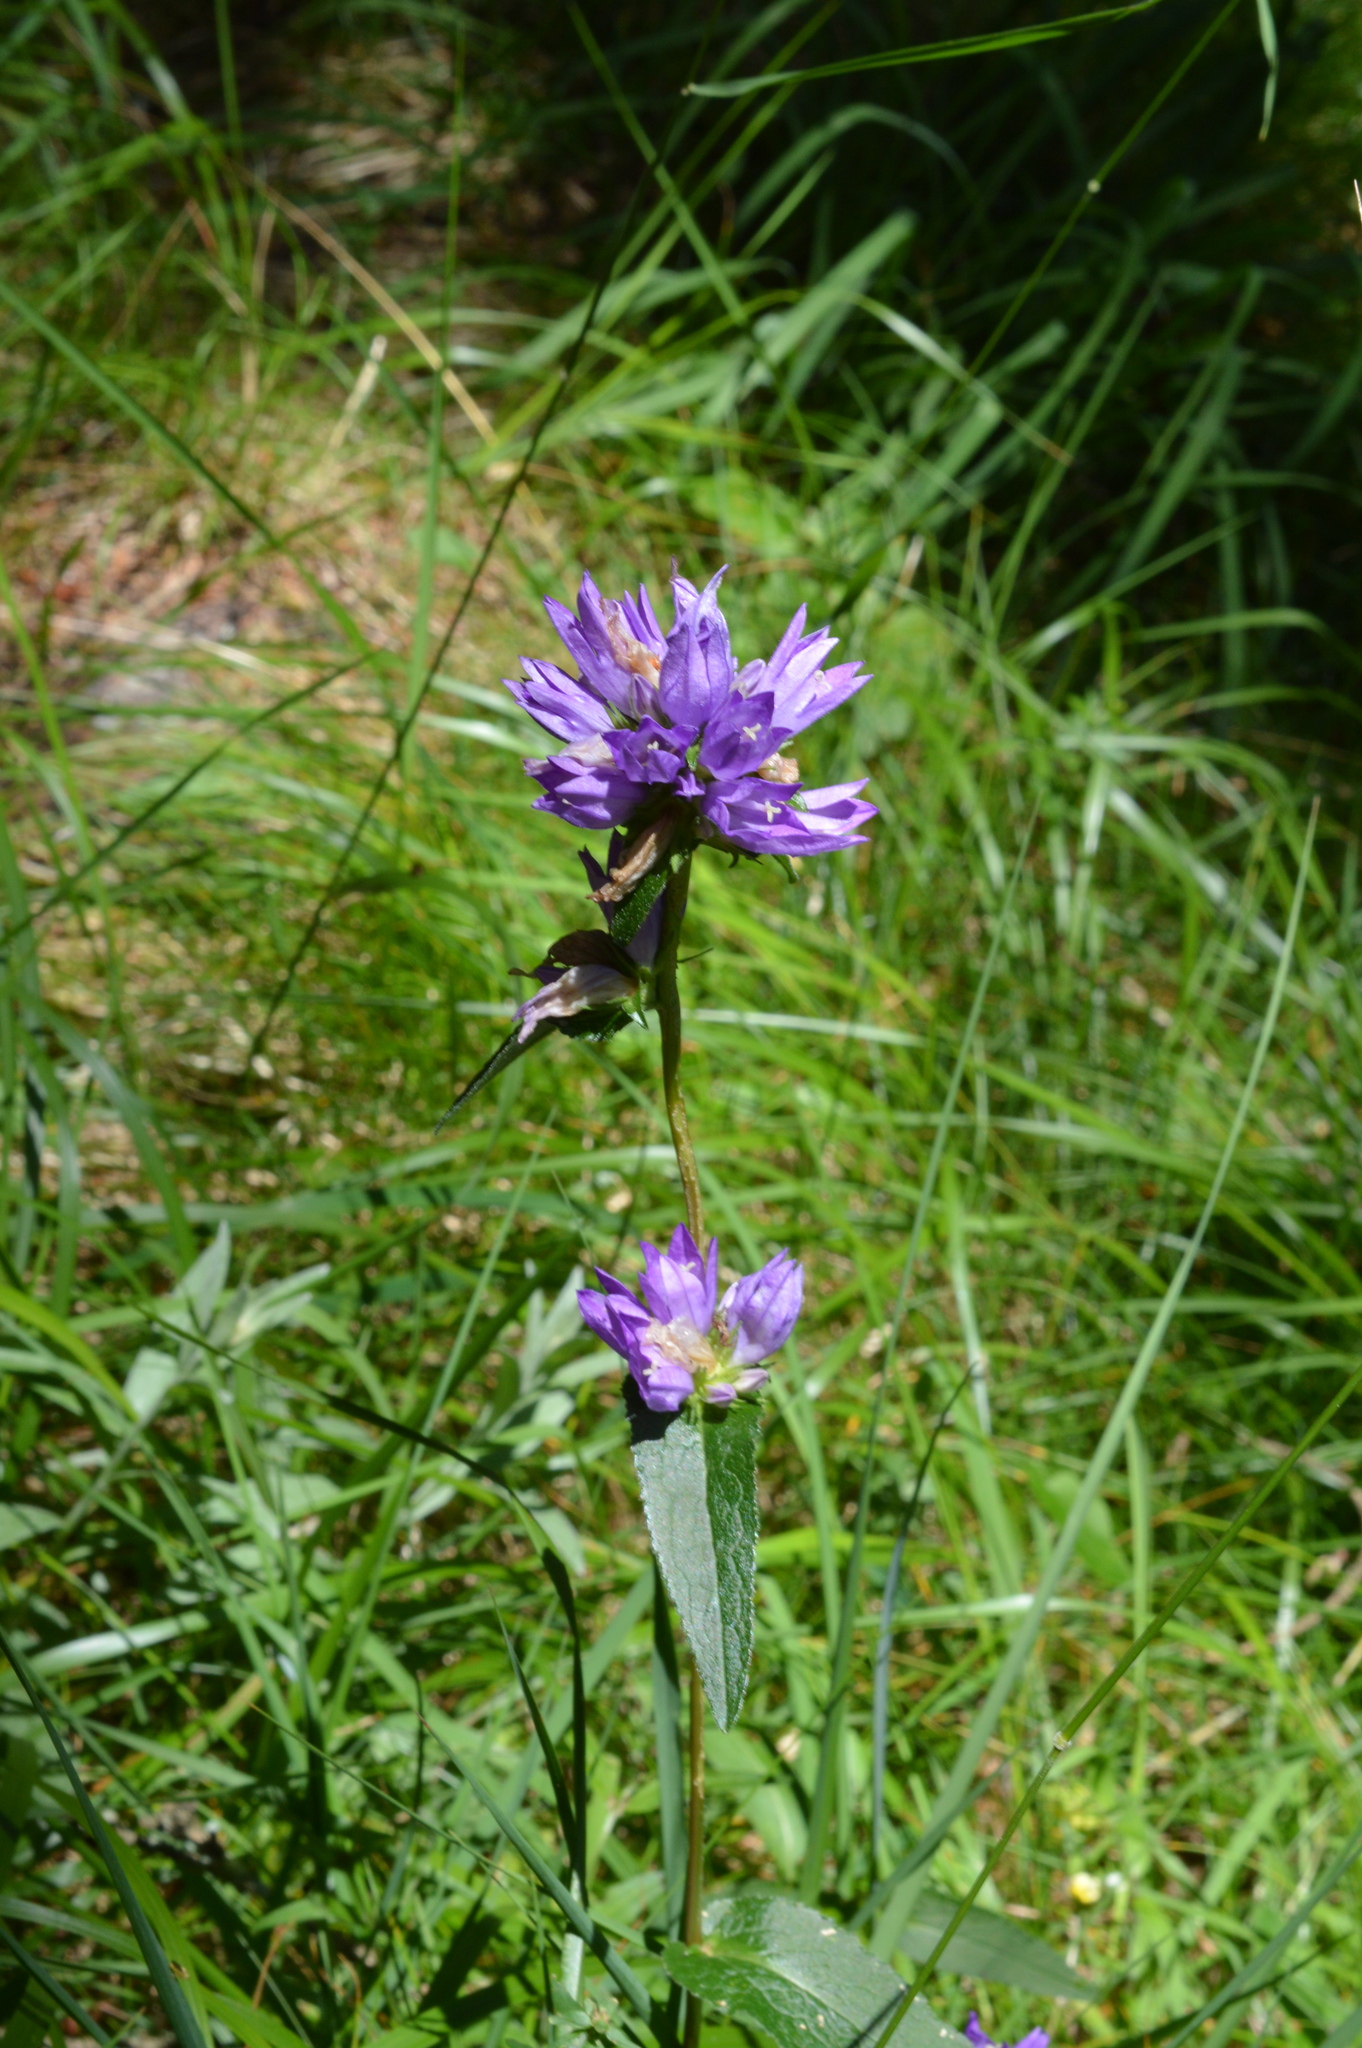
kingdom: Plantae
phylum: Tracheophyta
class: Magnoliopsida
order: Asterales
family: Campanulaceae
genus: Campanula
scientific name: Campanula glomerata
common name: Clustered bellflower
